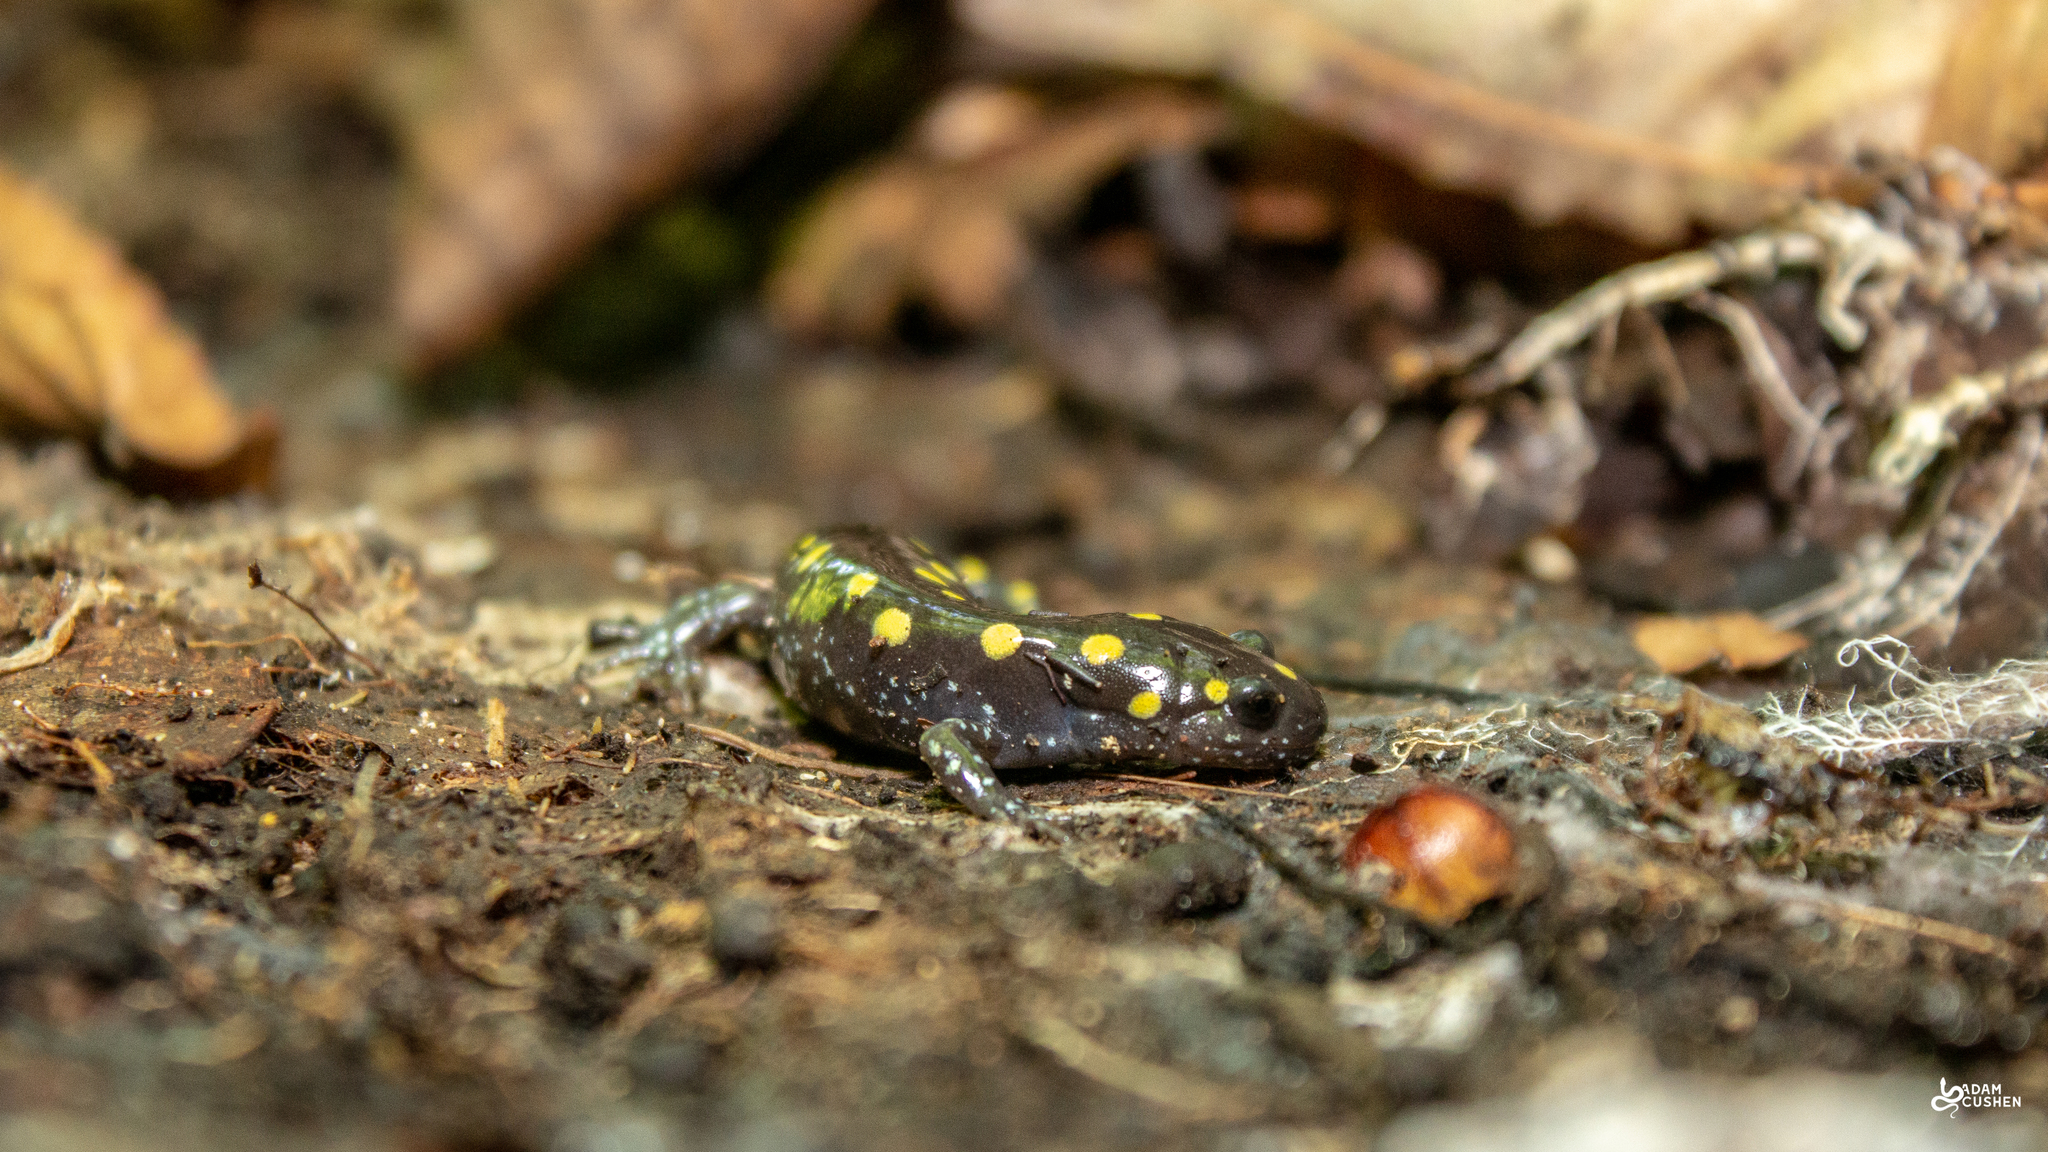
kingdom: Animalia
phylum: Chordata
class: Amphibia
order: Caudata
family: Ambystomatidae
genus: Ambystoma
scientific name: Ambystoma maculatum
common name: Spotted salamander
